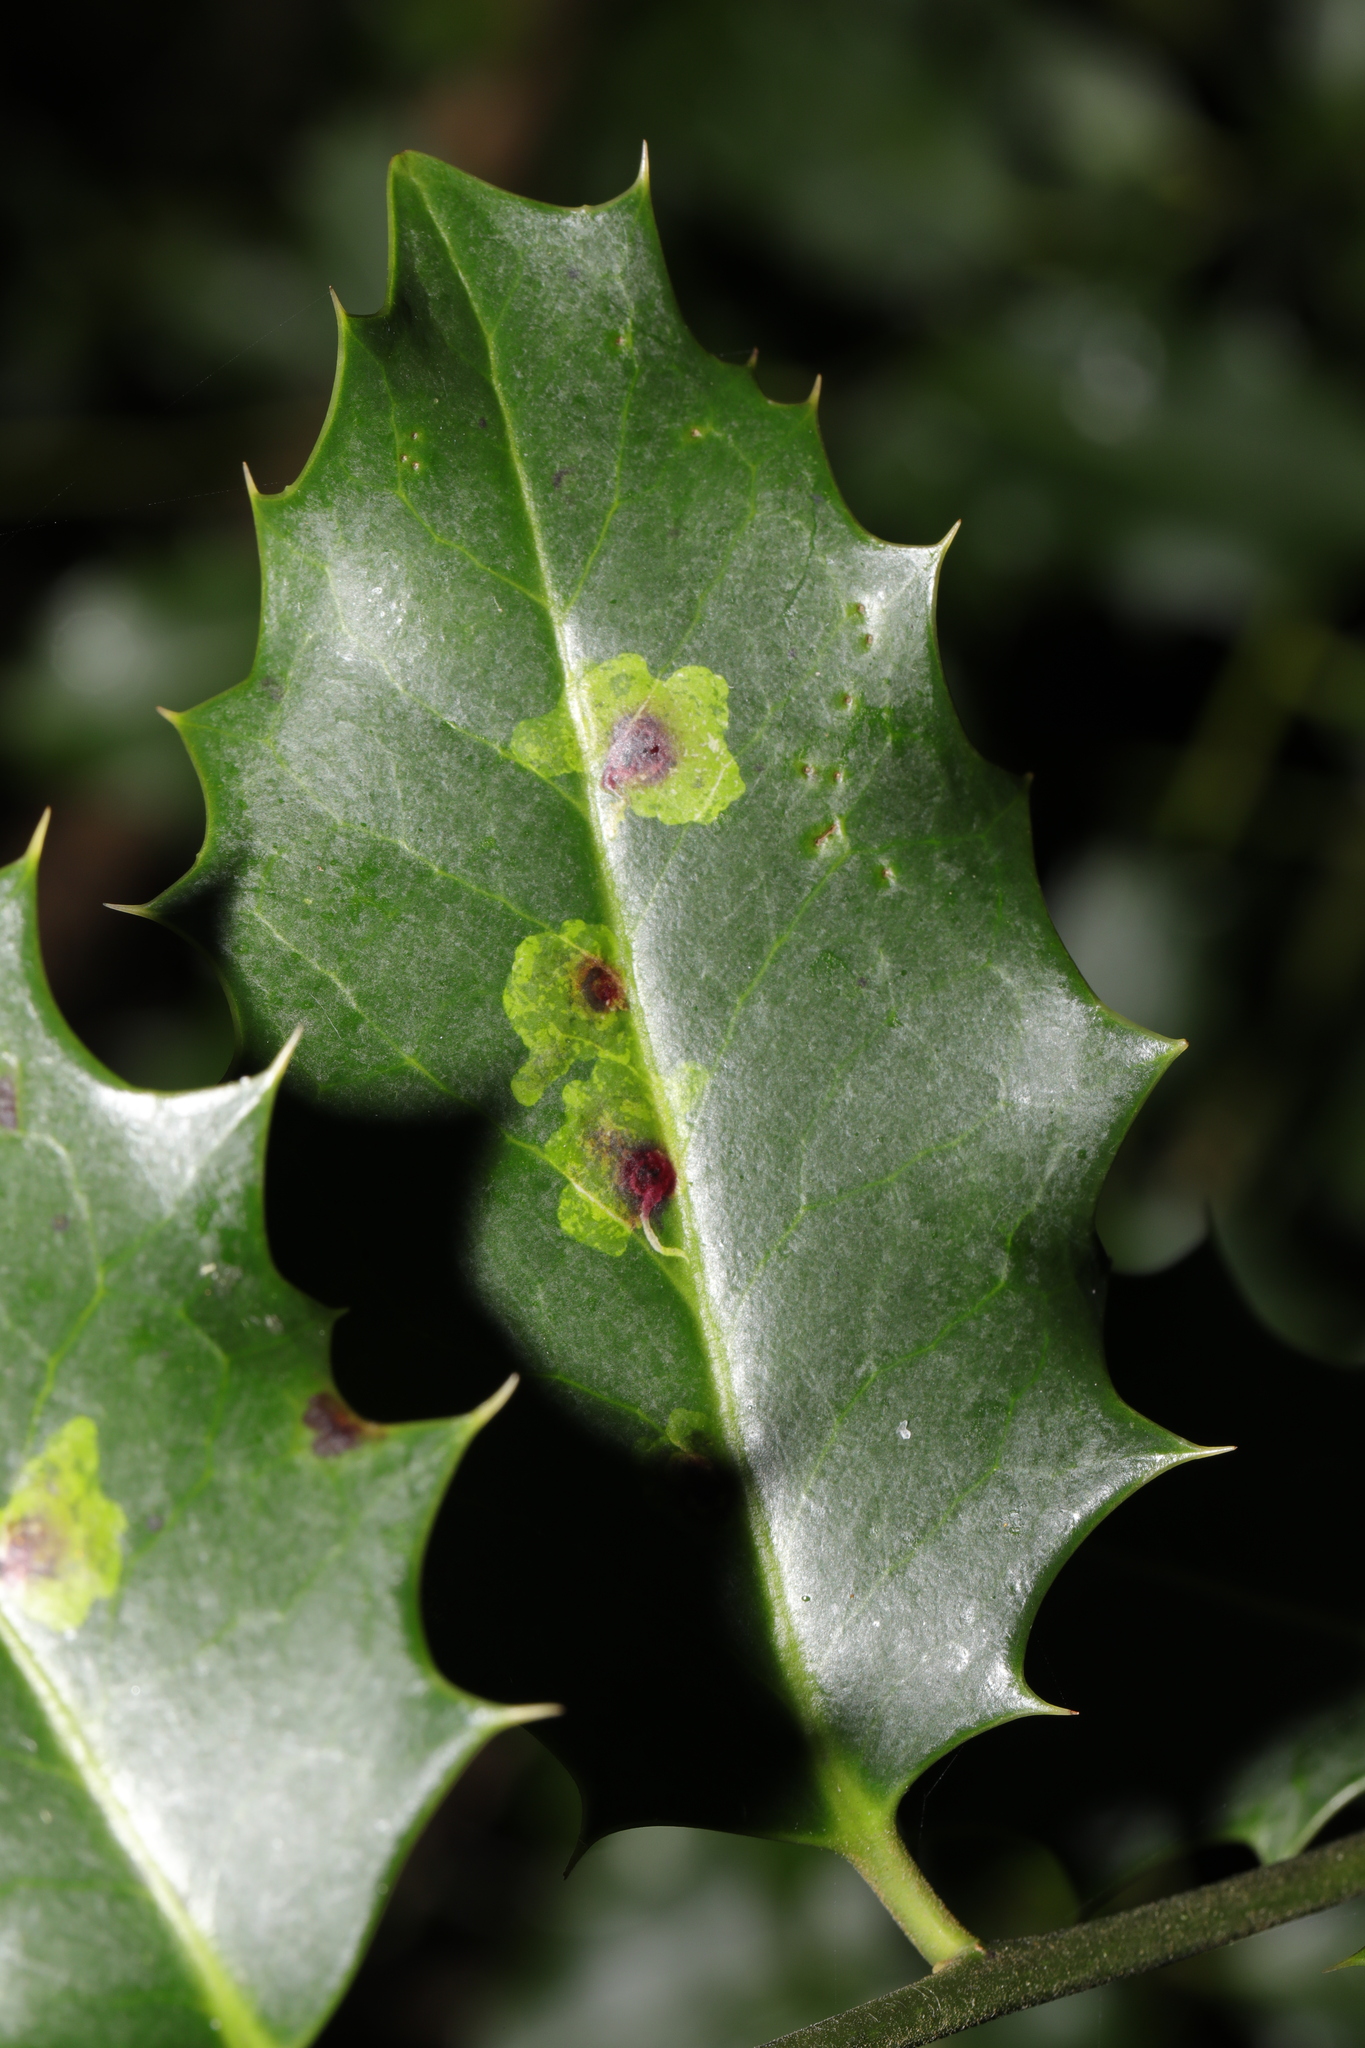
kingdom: Animalia
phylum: Arthropoda
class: Insecta
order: Diptera
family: Agromyzidae
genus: Phytomyza
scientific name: Phytomyza ilicis
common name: Holly leafminer
